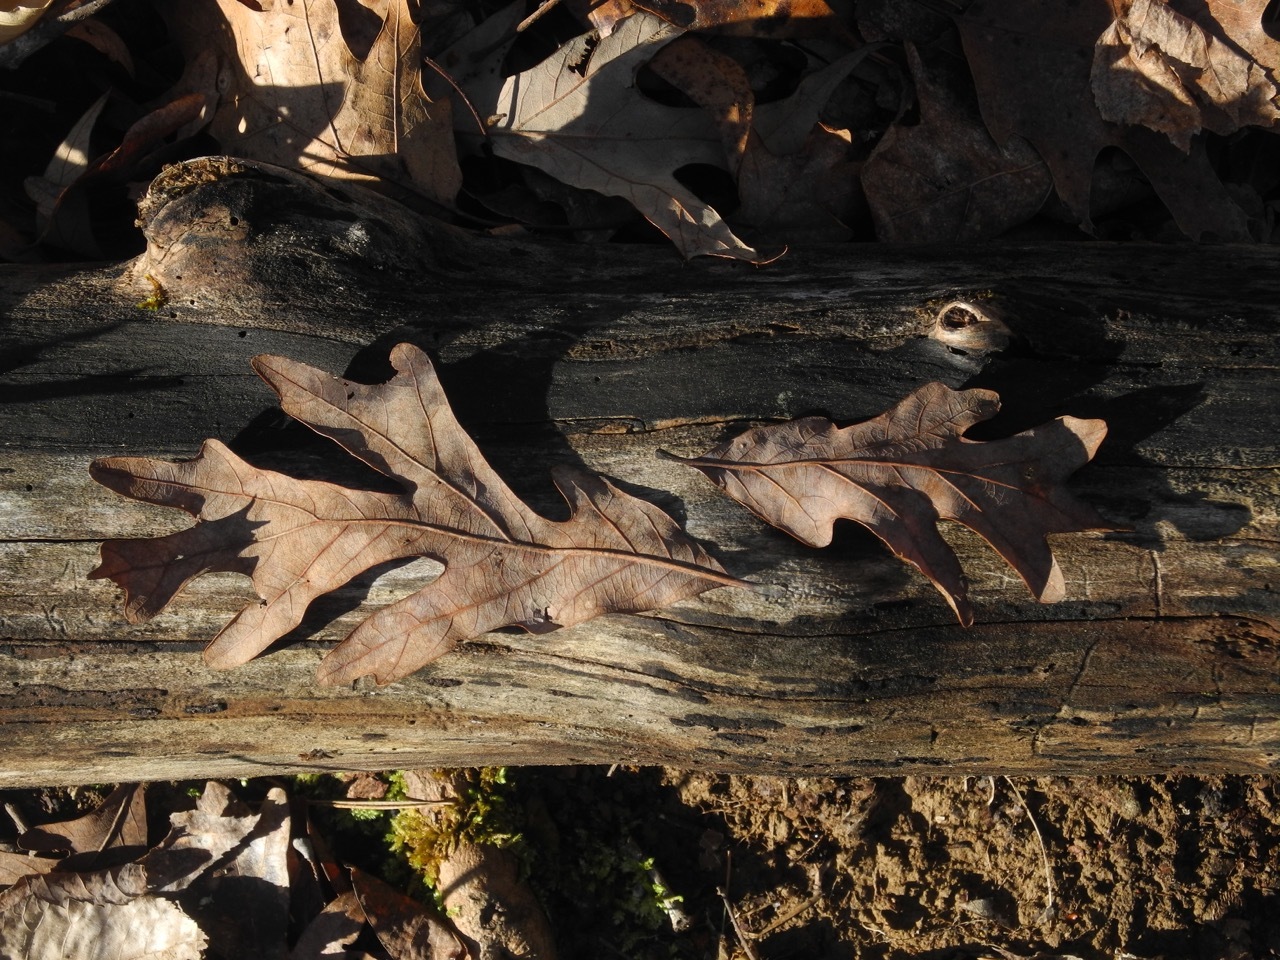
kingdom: Plantae
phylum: Tracheophyta
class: Magnoliopsida
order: Fagales
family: Fagaceae
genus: Quercus
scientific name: Quercus alba
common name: White oak
